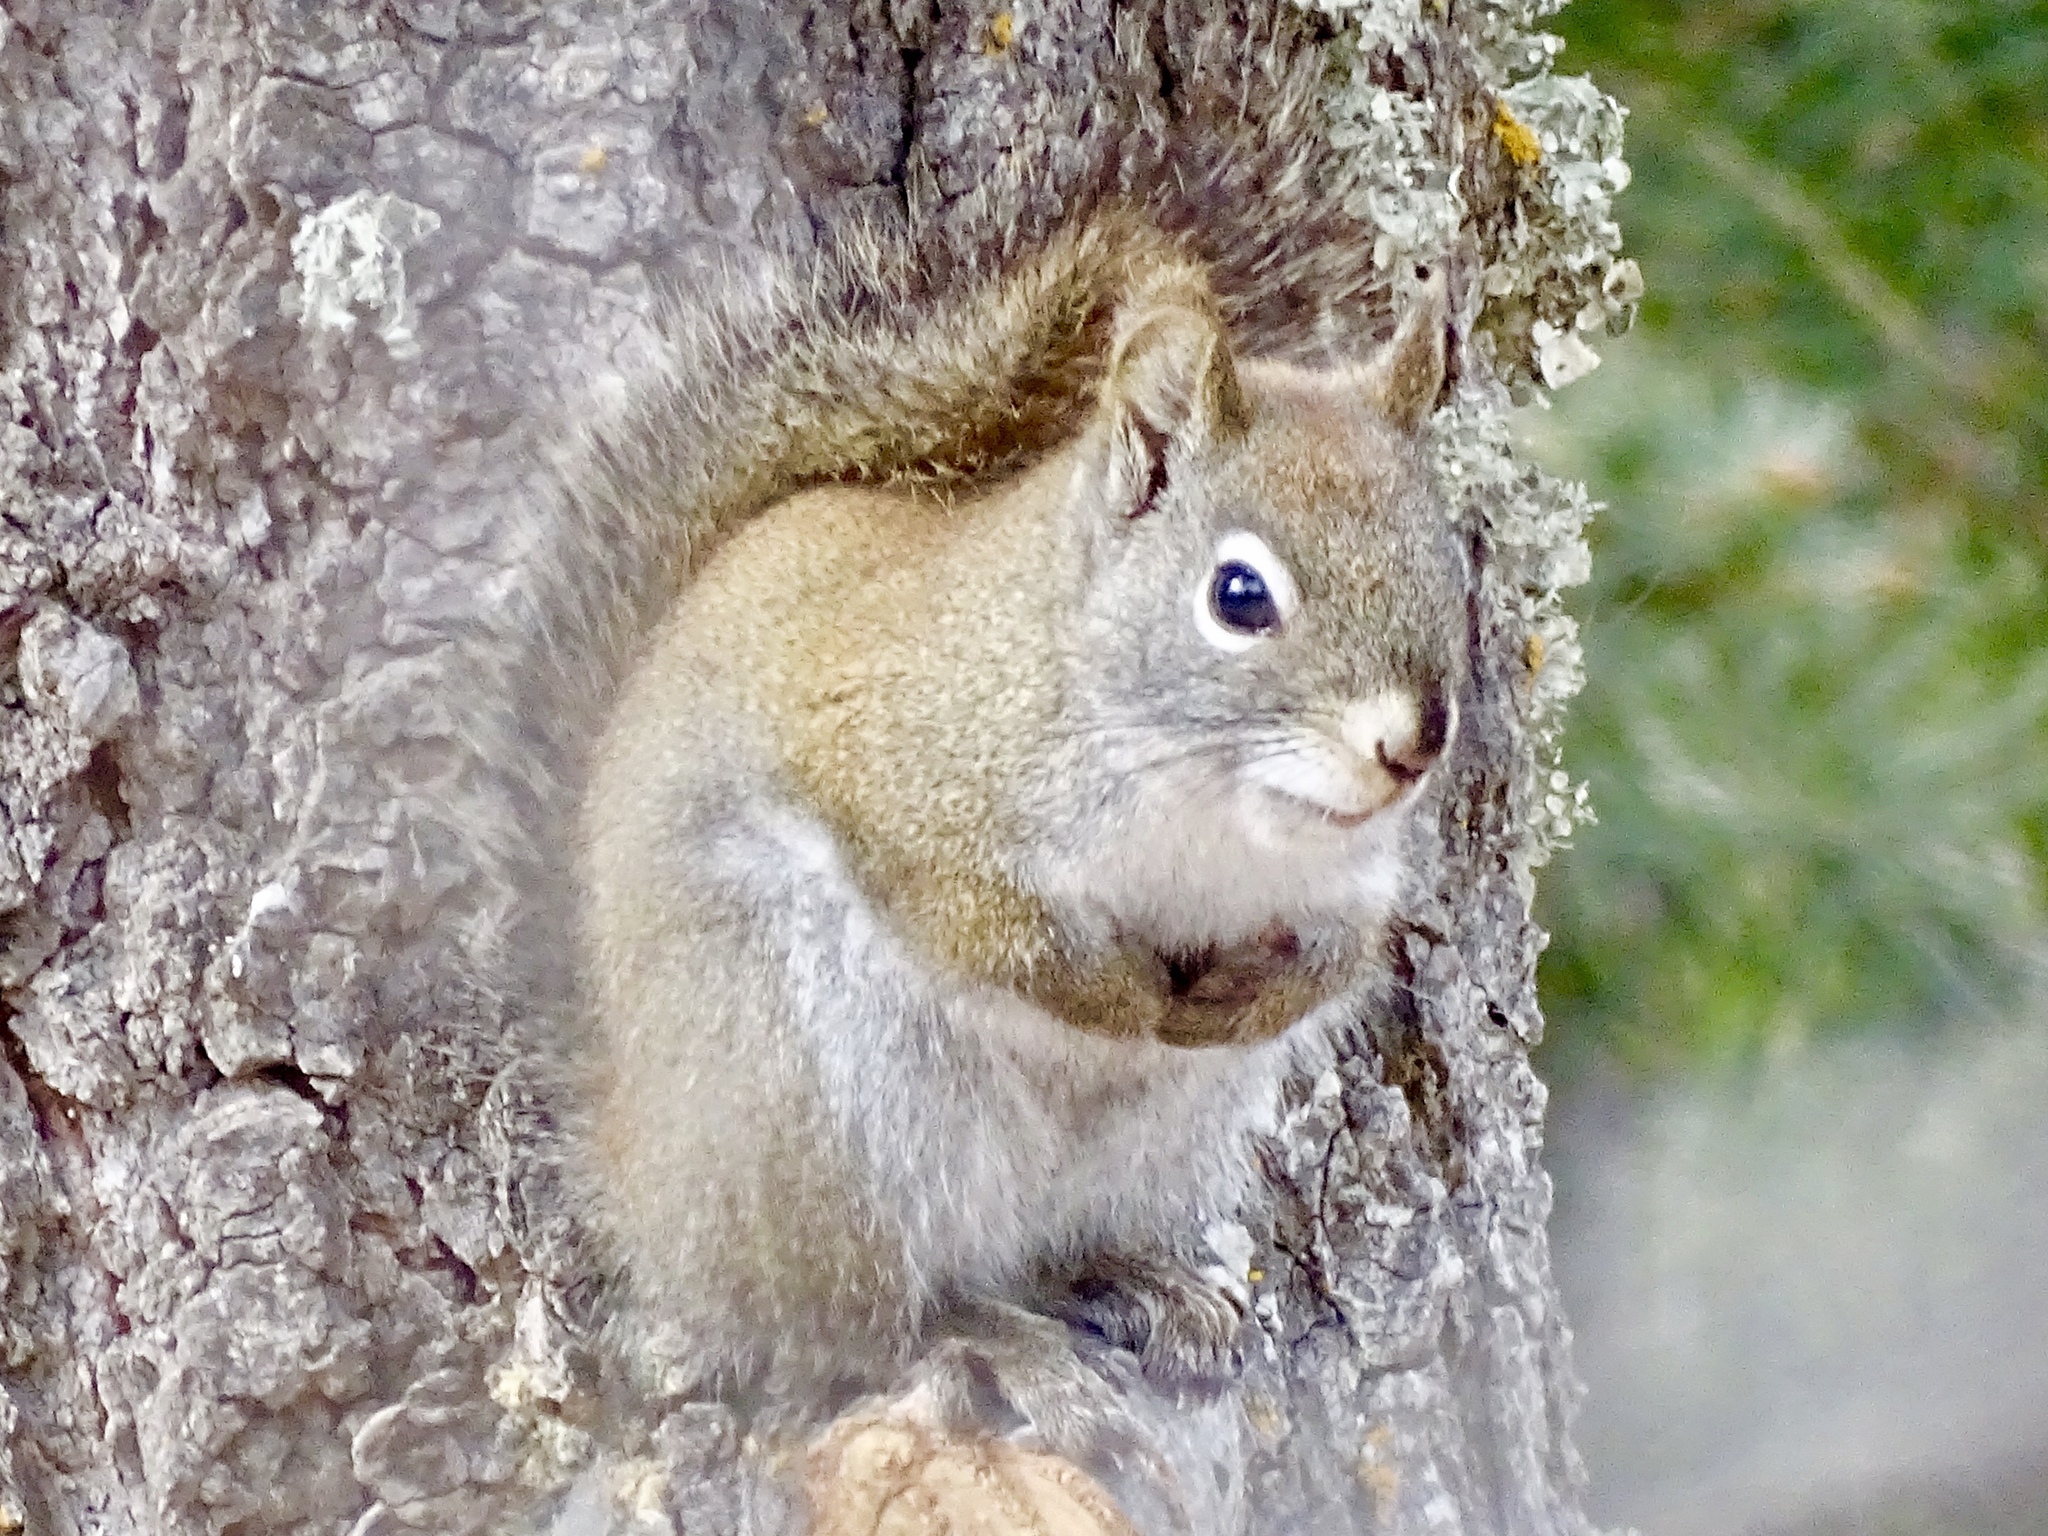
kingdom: Animalia
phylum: Chordata
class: Mammalia
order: Rodentia
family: Sciuridae
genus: Tamiasciurus
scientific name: Tamiasciurus hudsonicus
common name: Red squirrel
